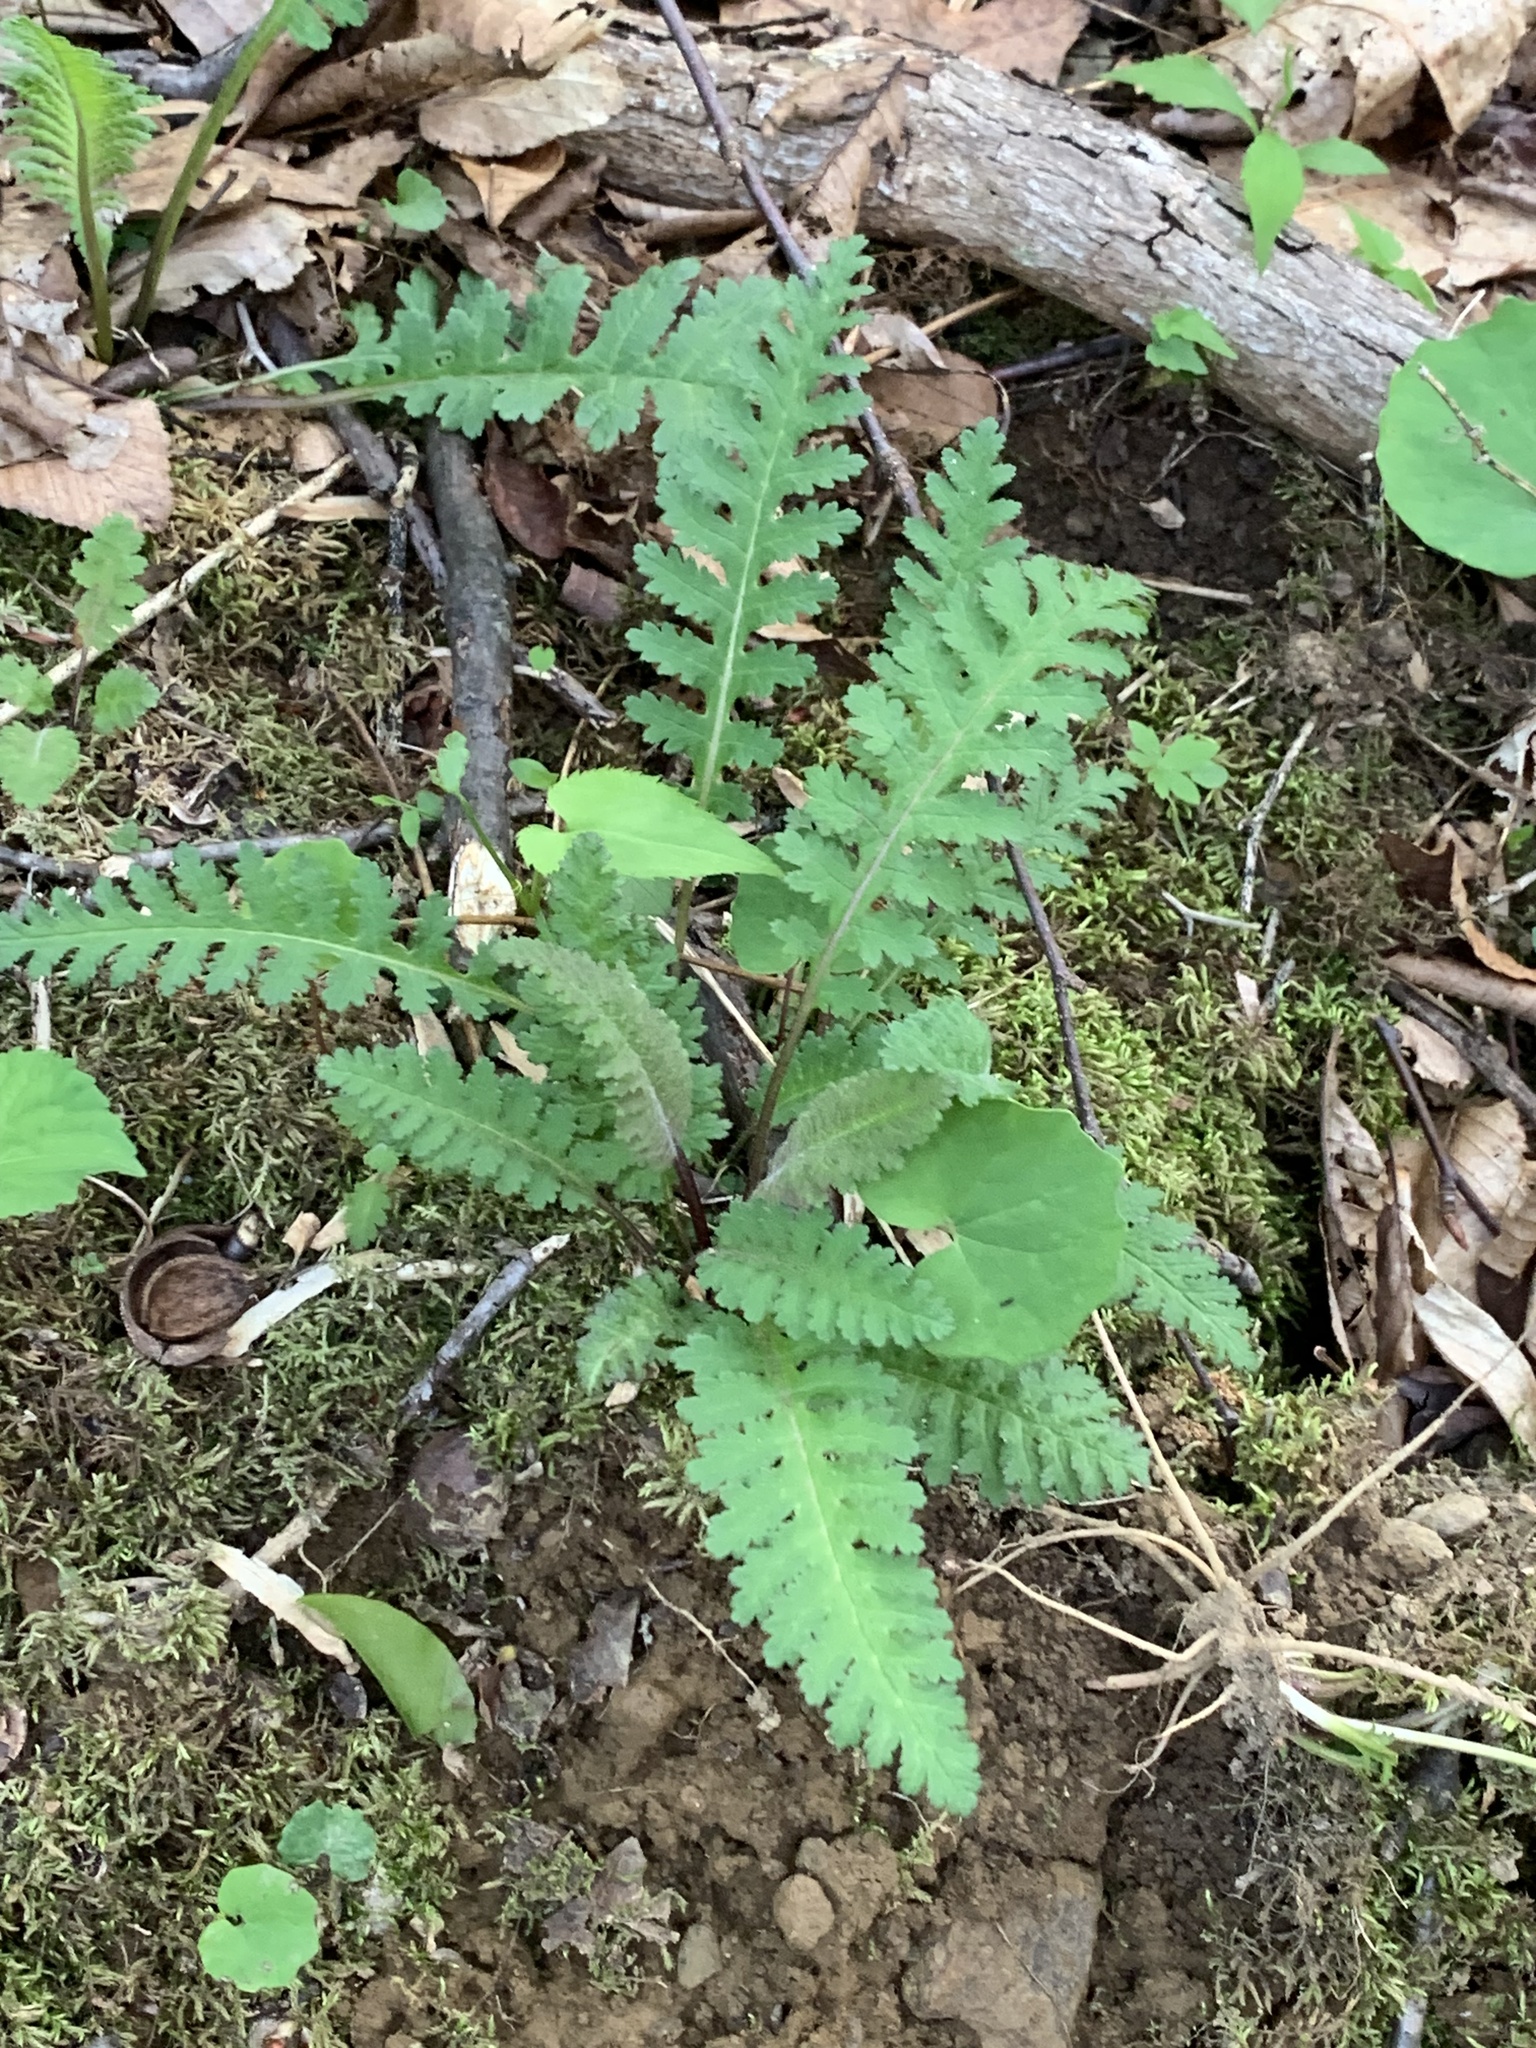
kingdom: Plantae
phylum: Tracheophyta
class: Magnoliopsida
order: Lamiales
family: Orobanchaceae
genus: Pedicularis
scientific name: Pedicularis canadensis
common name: Early lousewort
